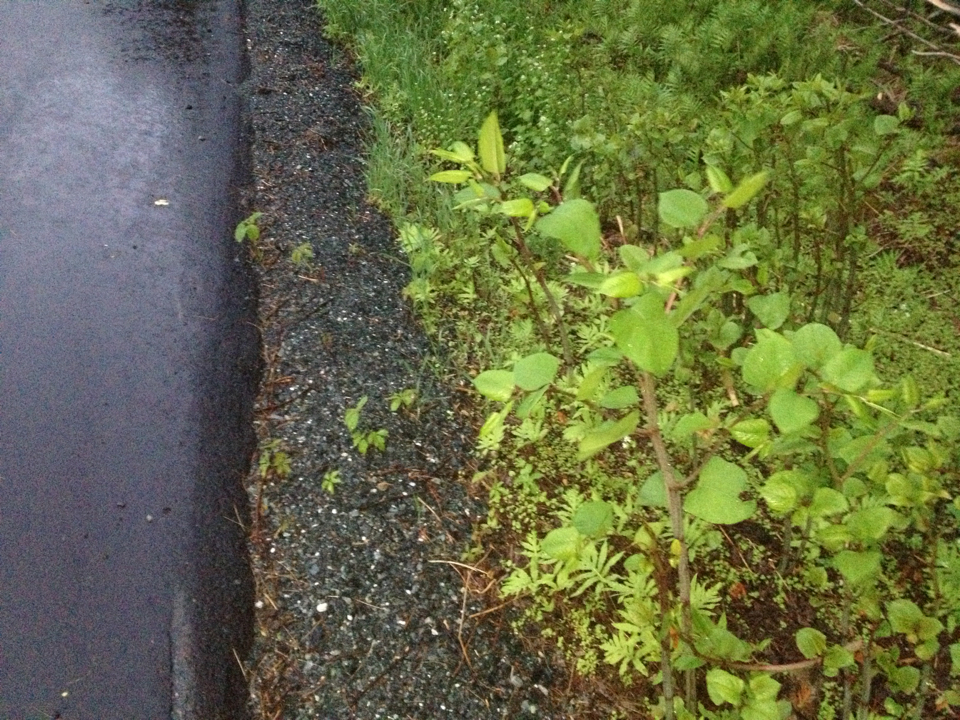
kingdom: Plantae
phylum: Tracheophyta
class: Magnoliopsida
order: Caryophyllales
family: Polygonaceae
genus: Reynoutria
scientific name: Reynoutria japonica
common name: Japanese knotweed
